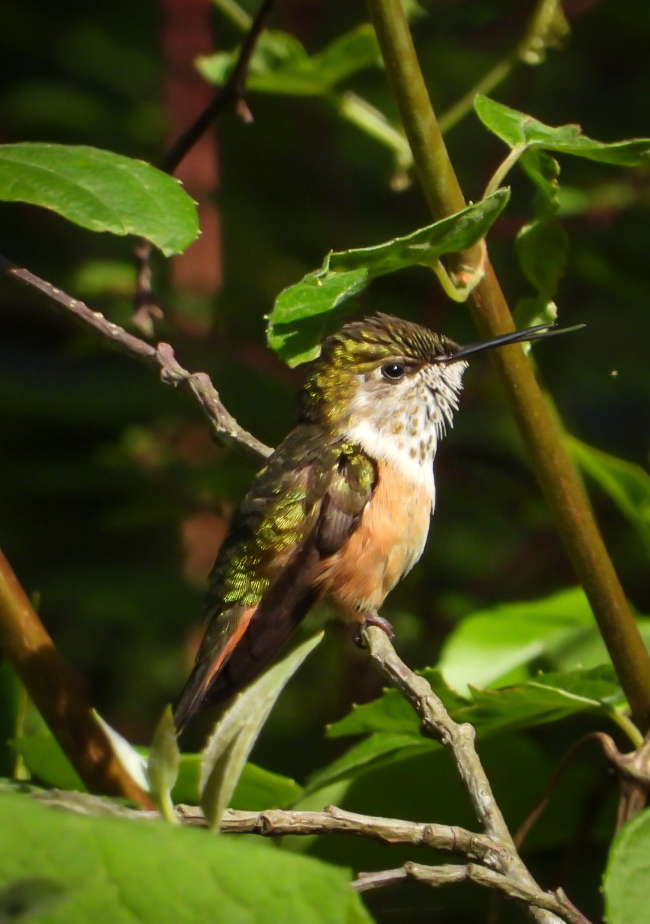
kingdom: Animalia
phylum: Chordata
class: Aves
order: Apodiformes
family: Trochilidae
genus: Selasphorus
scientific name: Selasphorus heloisa
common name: Bumblebee hummingbird
